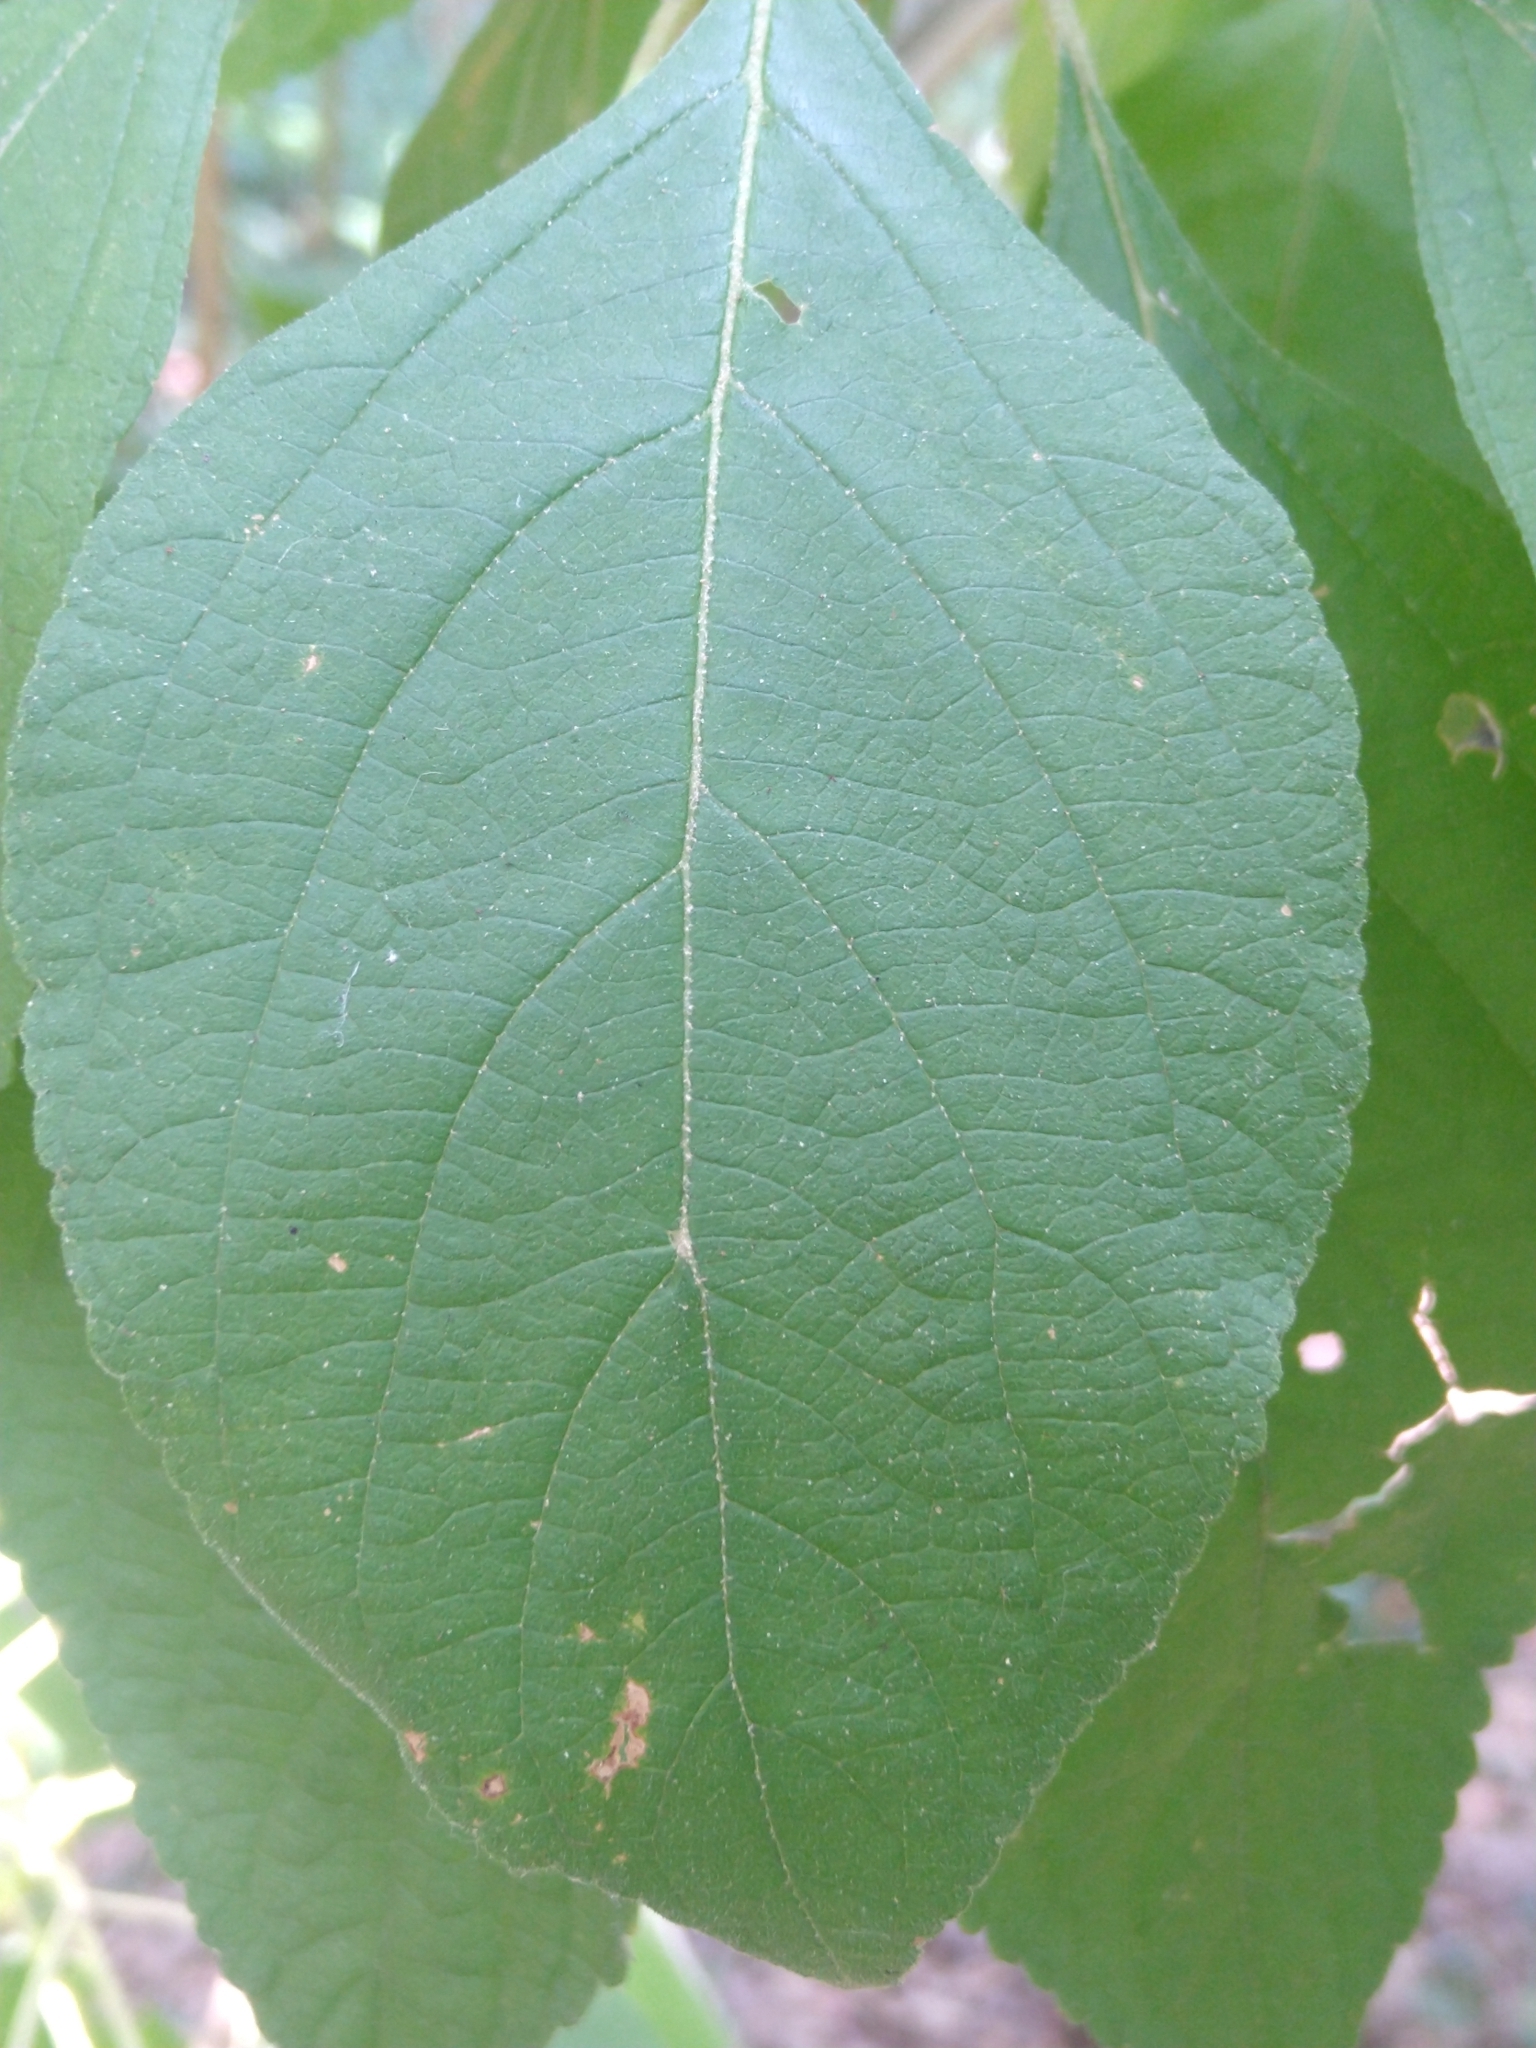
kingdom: Plantae
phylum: Tracheophyta
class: Magnoliopsida
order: Lamiales
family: Lamiaceae
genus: Callicarpa
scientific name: Callicarpa americana
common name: American beautyberry
